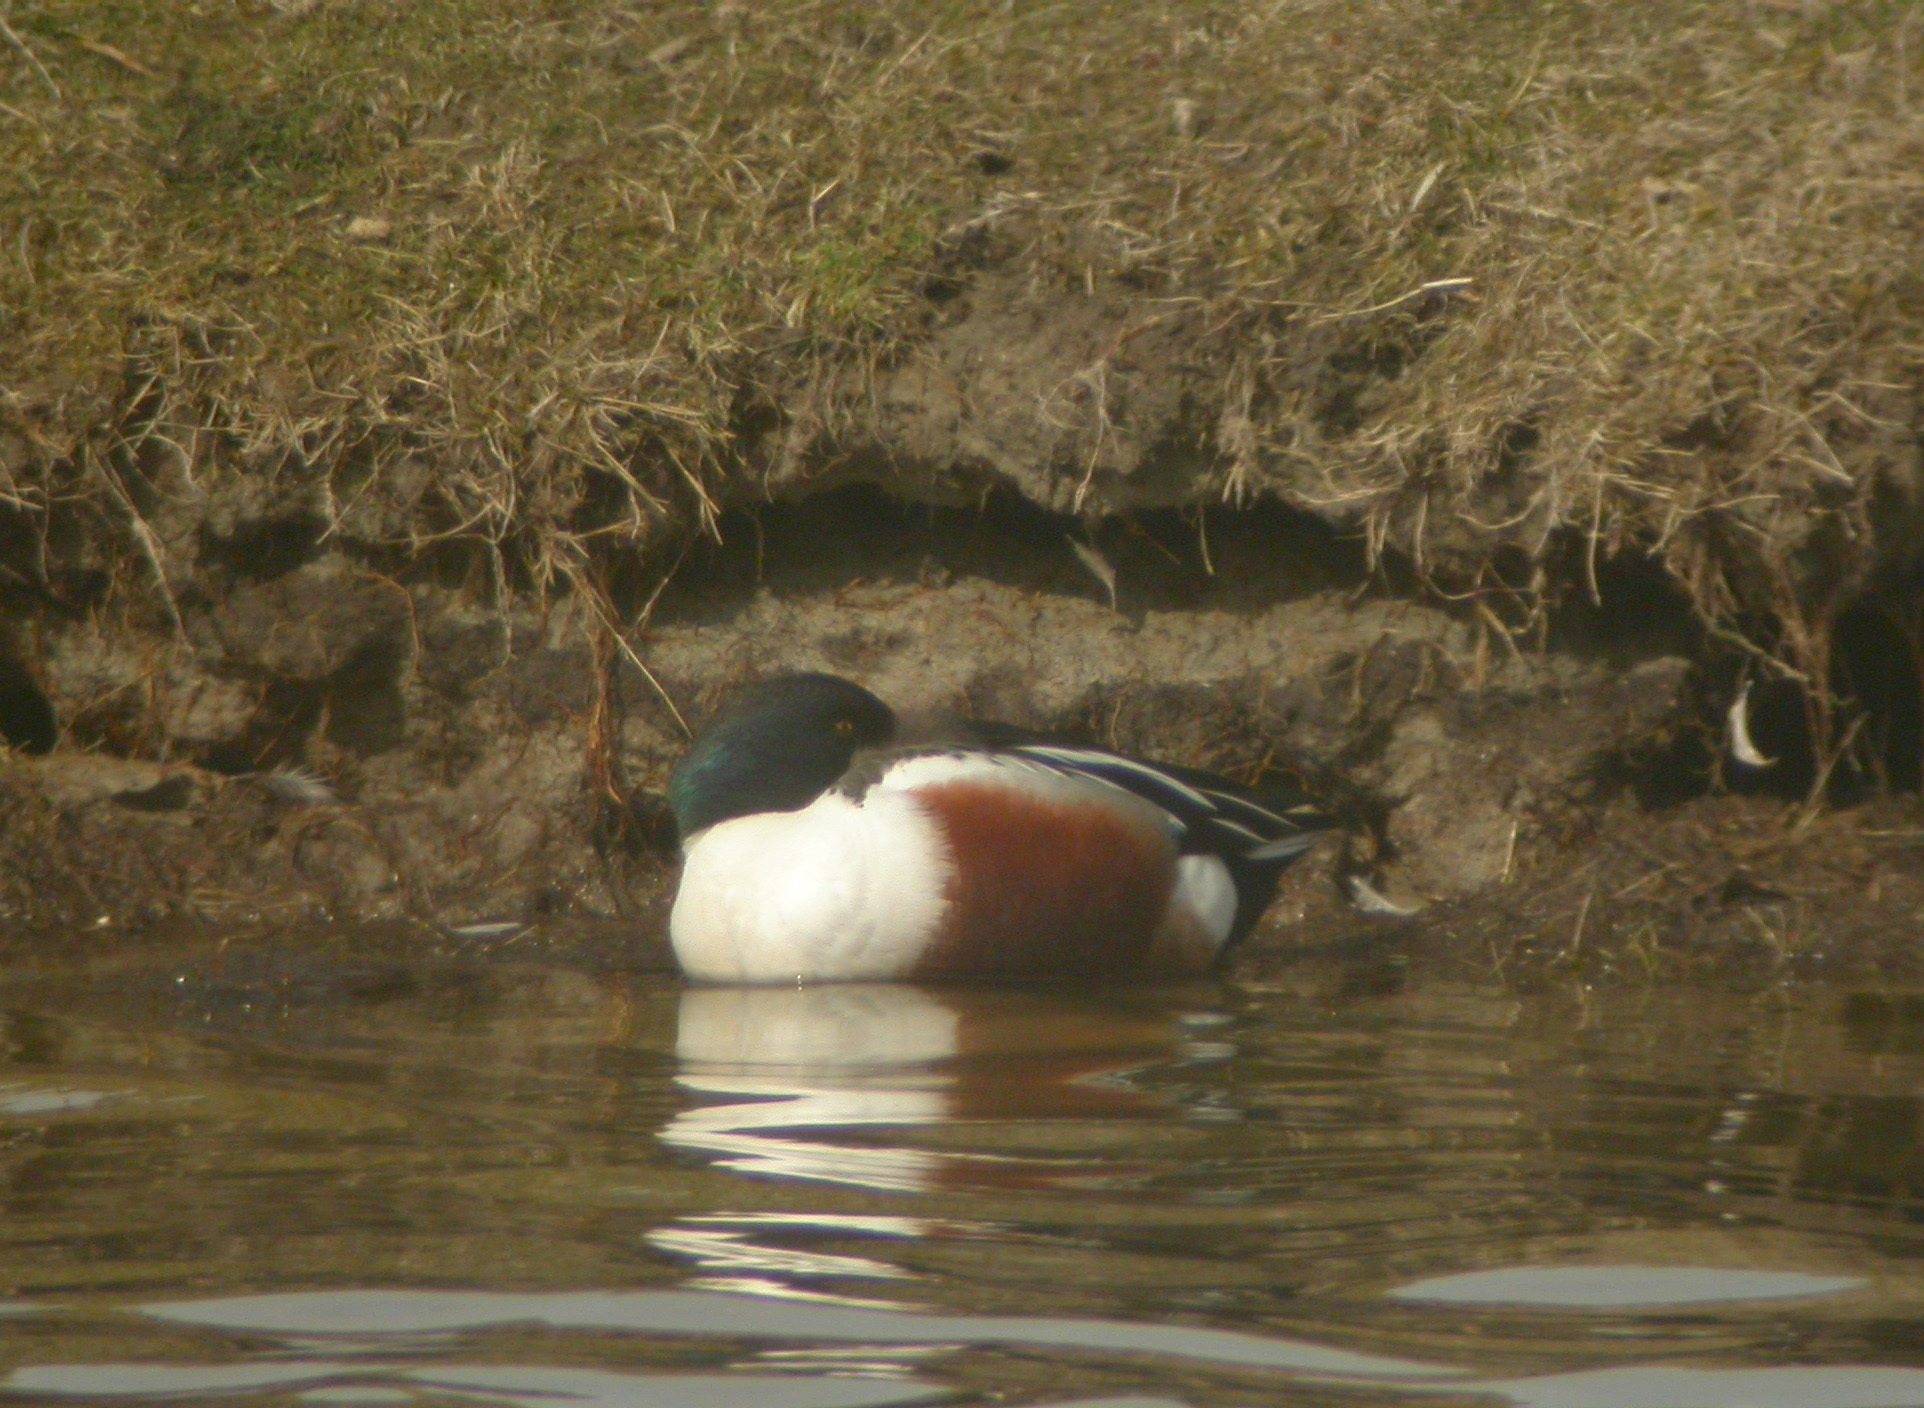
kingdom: Animalia
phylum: Chordata
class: Aves
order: Anseriformes
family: Anatidae
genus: Spatula
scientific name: Spatula clypeata
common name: Northern shoveler
